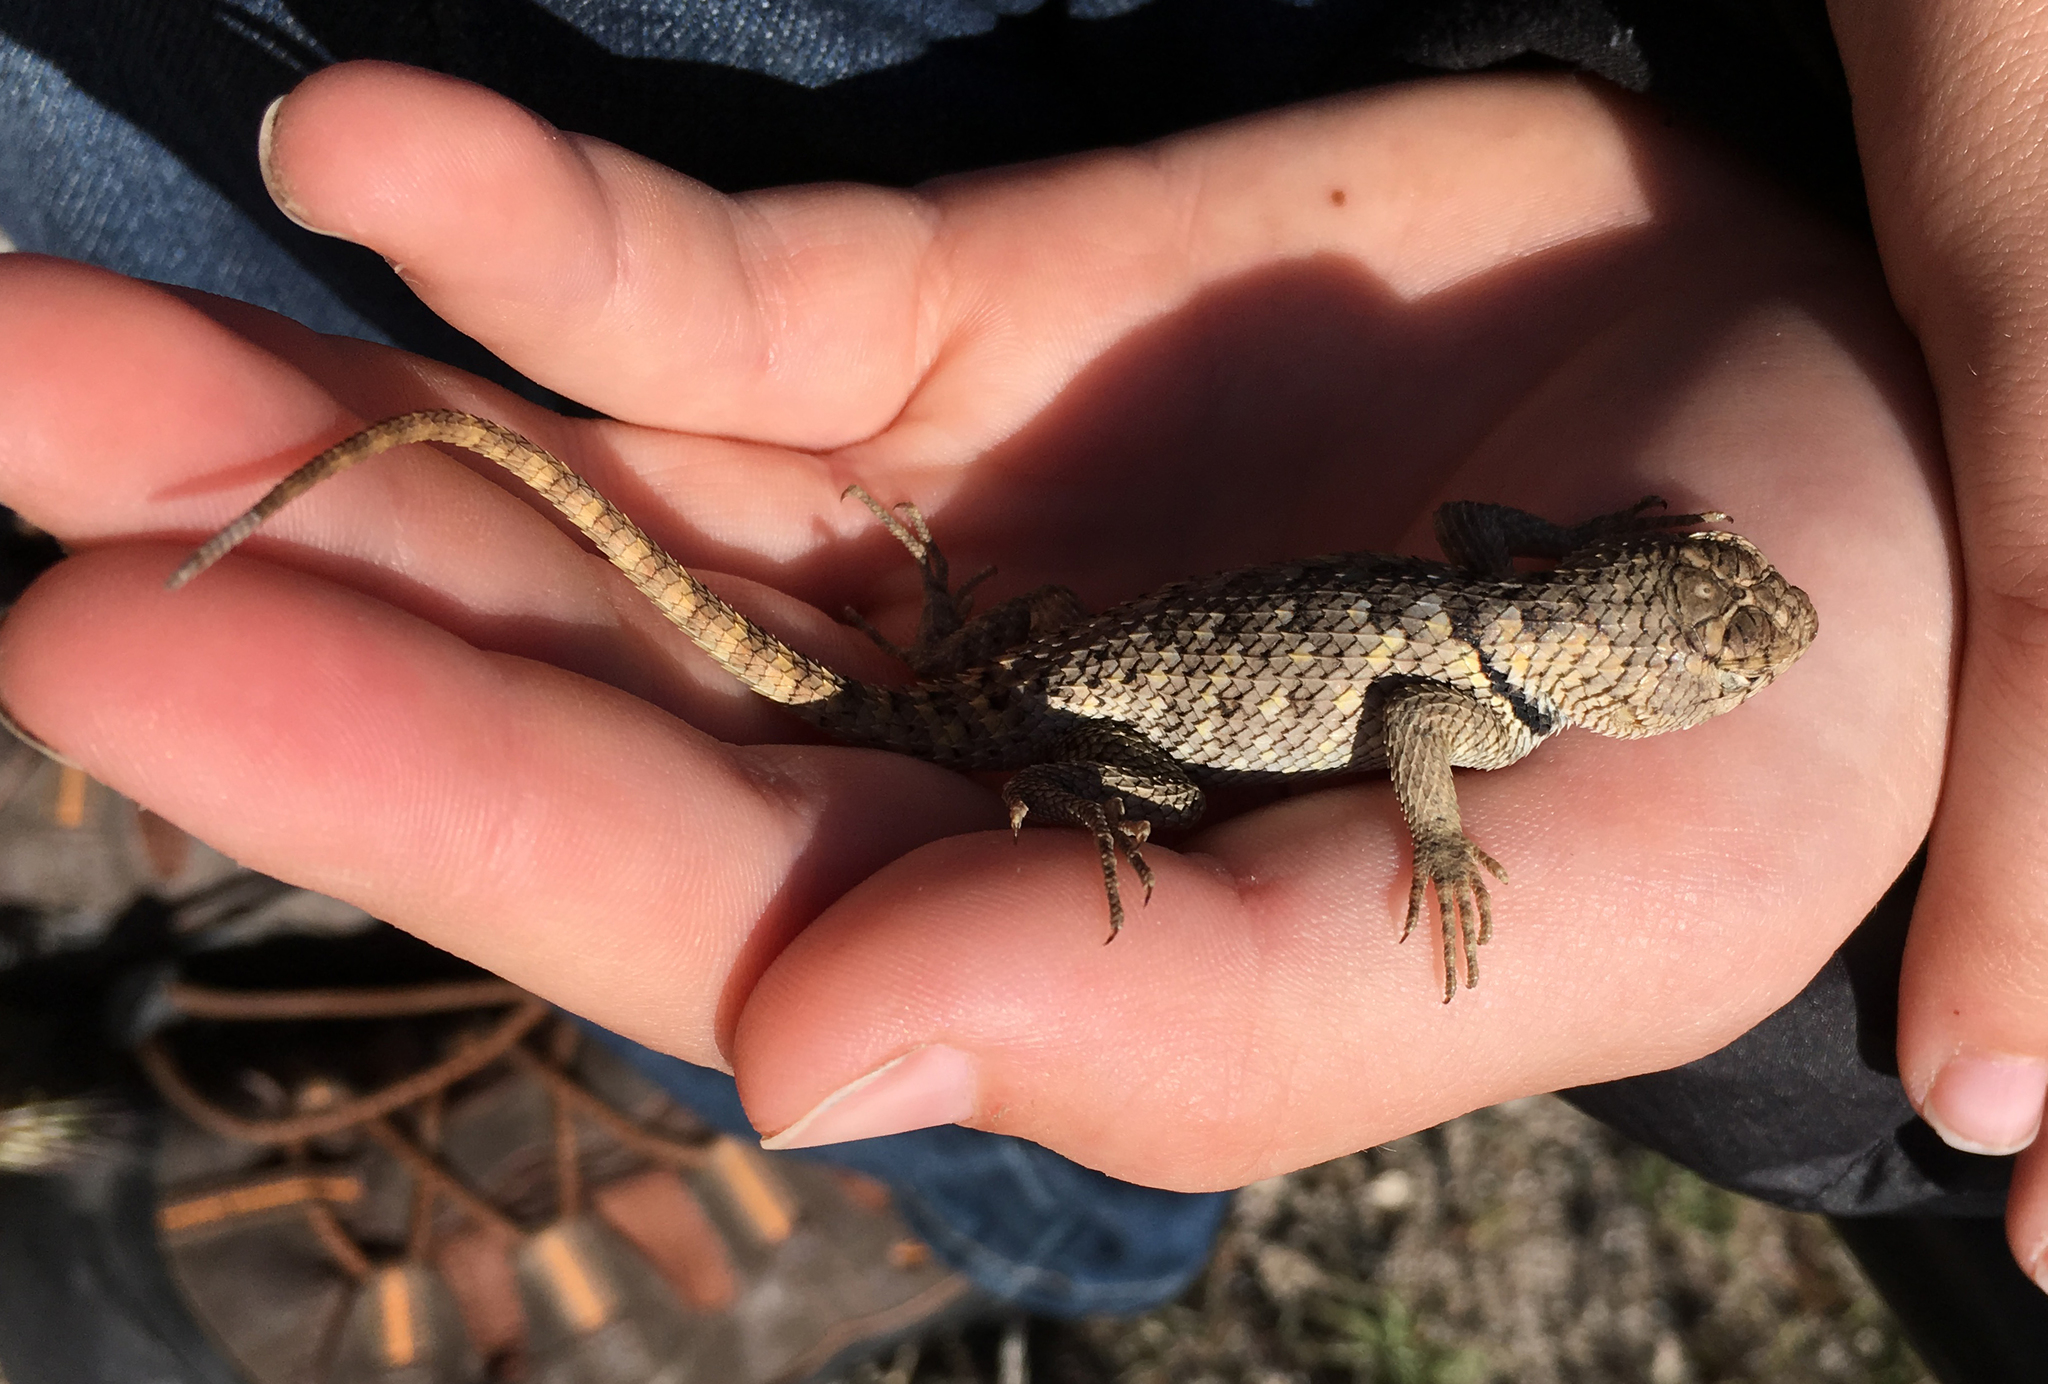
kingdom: Animalia
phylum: Chordata
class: Squamata
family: Phrynosomatidae
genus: Sceloporus
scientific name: Sceloporus uniformis
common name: Yellow-backed spiny lizard
